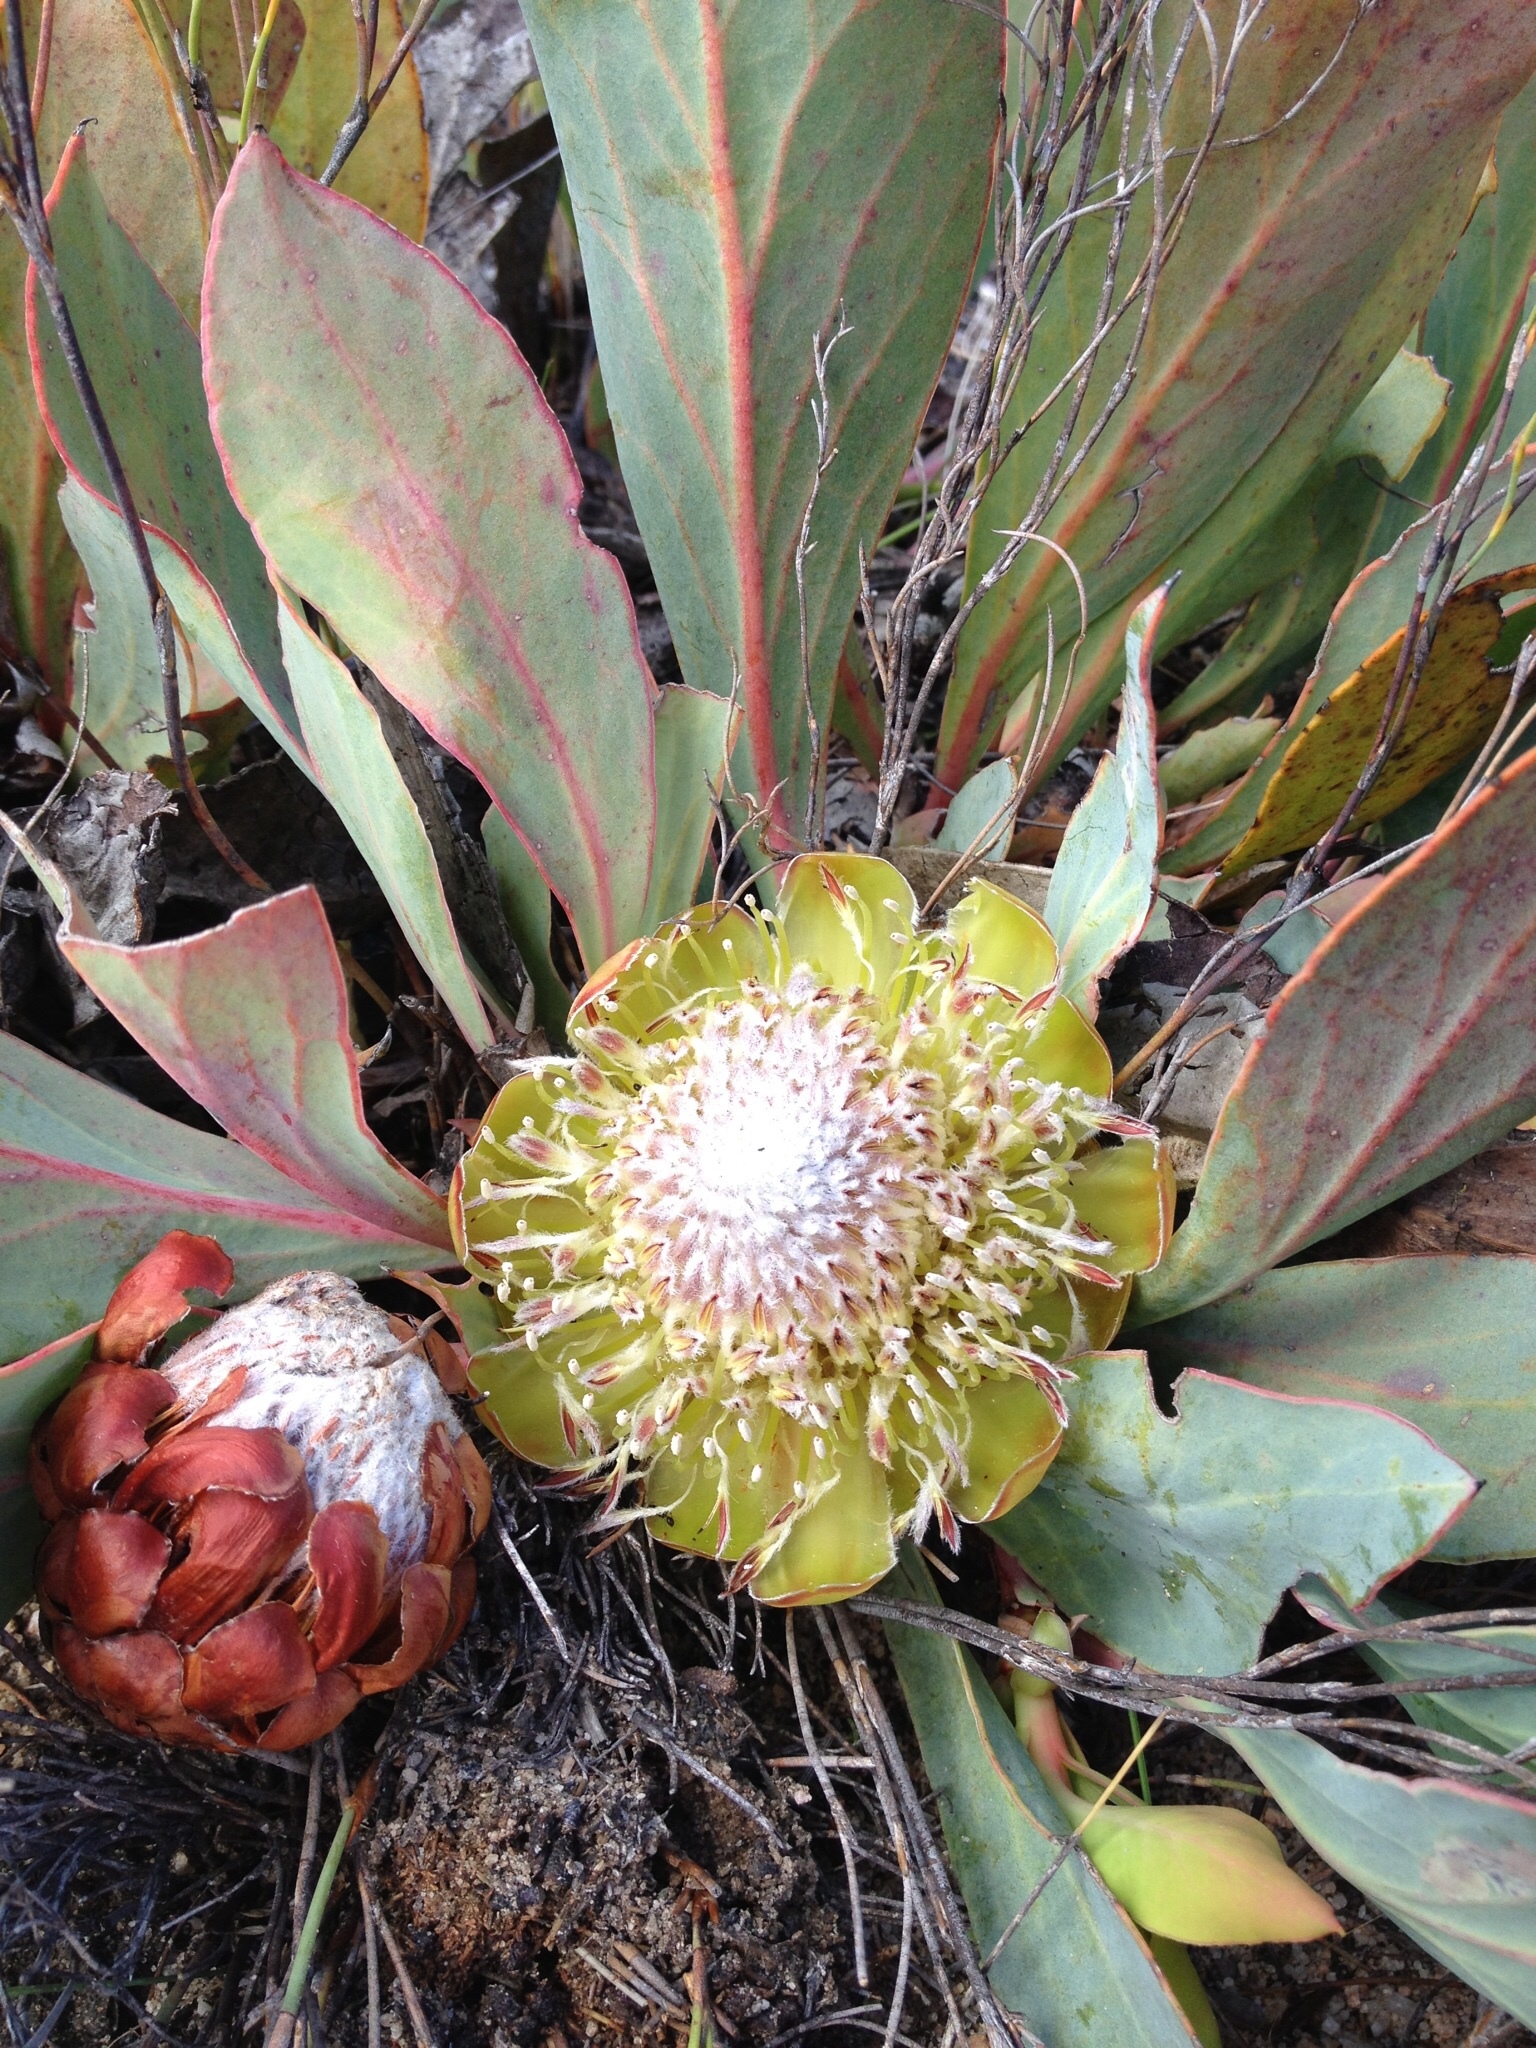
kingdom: Plantae
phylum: Tracheophyta
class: Magnoliopsida
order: Proteales
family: Proteaceae
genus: Protea
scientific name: Protea acaulos
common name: Common ground sugarbush
